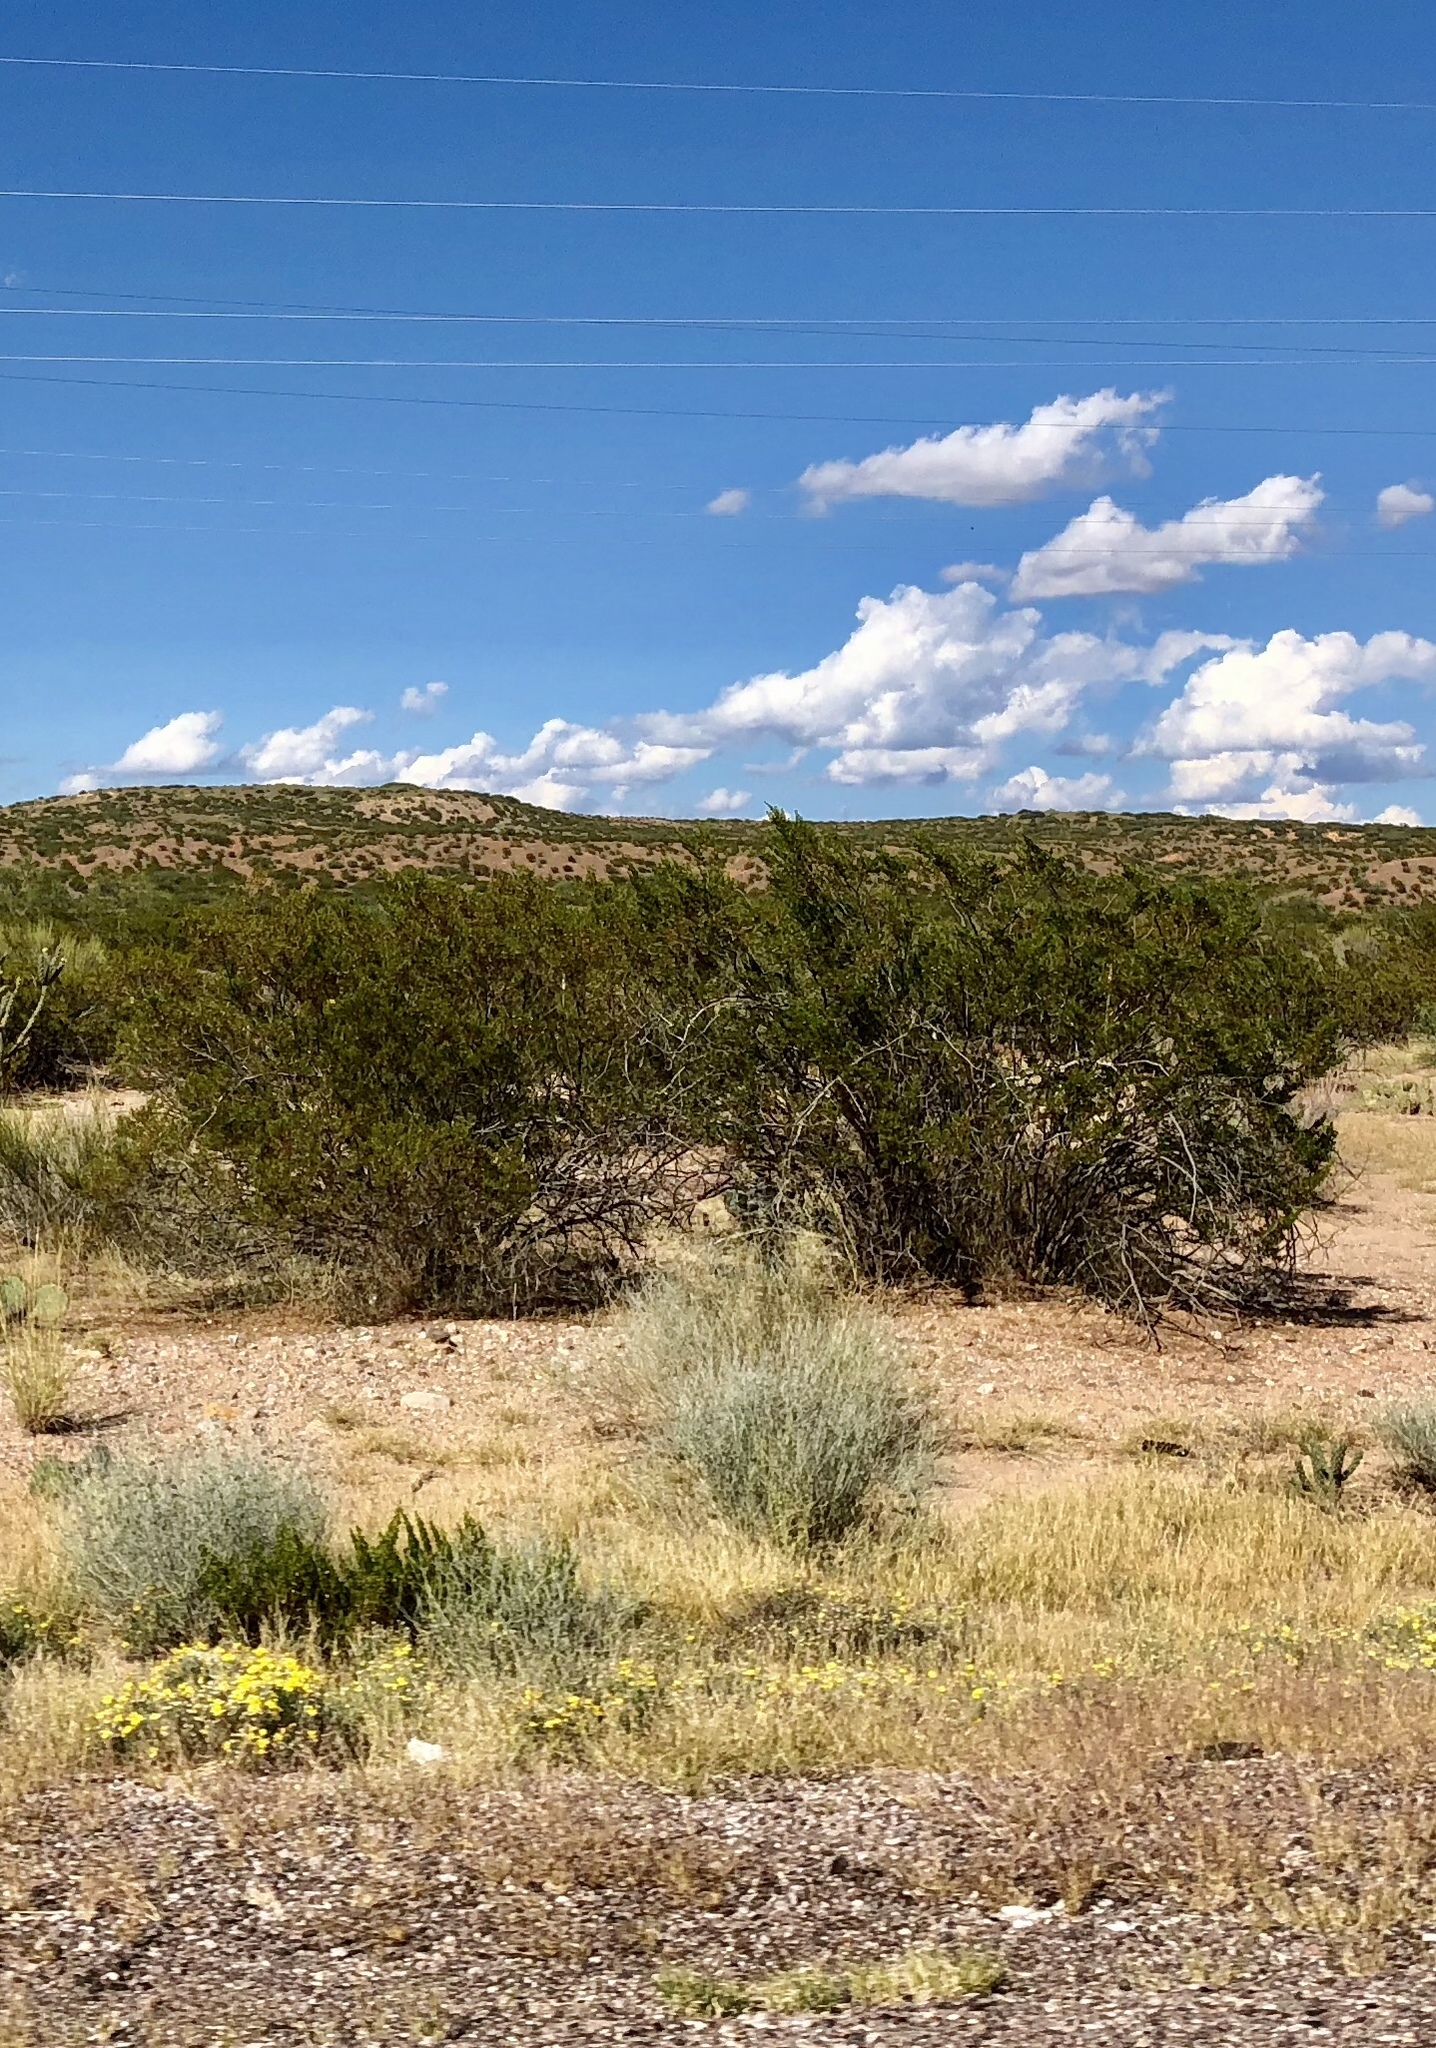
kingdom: Plantae
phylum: Tracheophyta
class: Magnoliopsida
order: Zygophyllales
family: Zygophyllaceae
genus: Larrea
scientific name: Larrea tridentata
